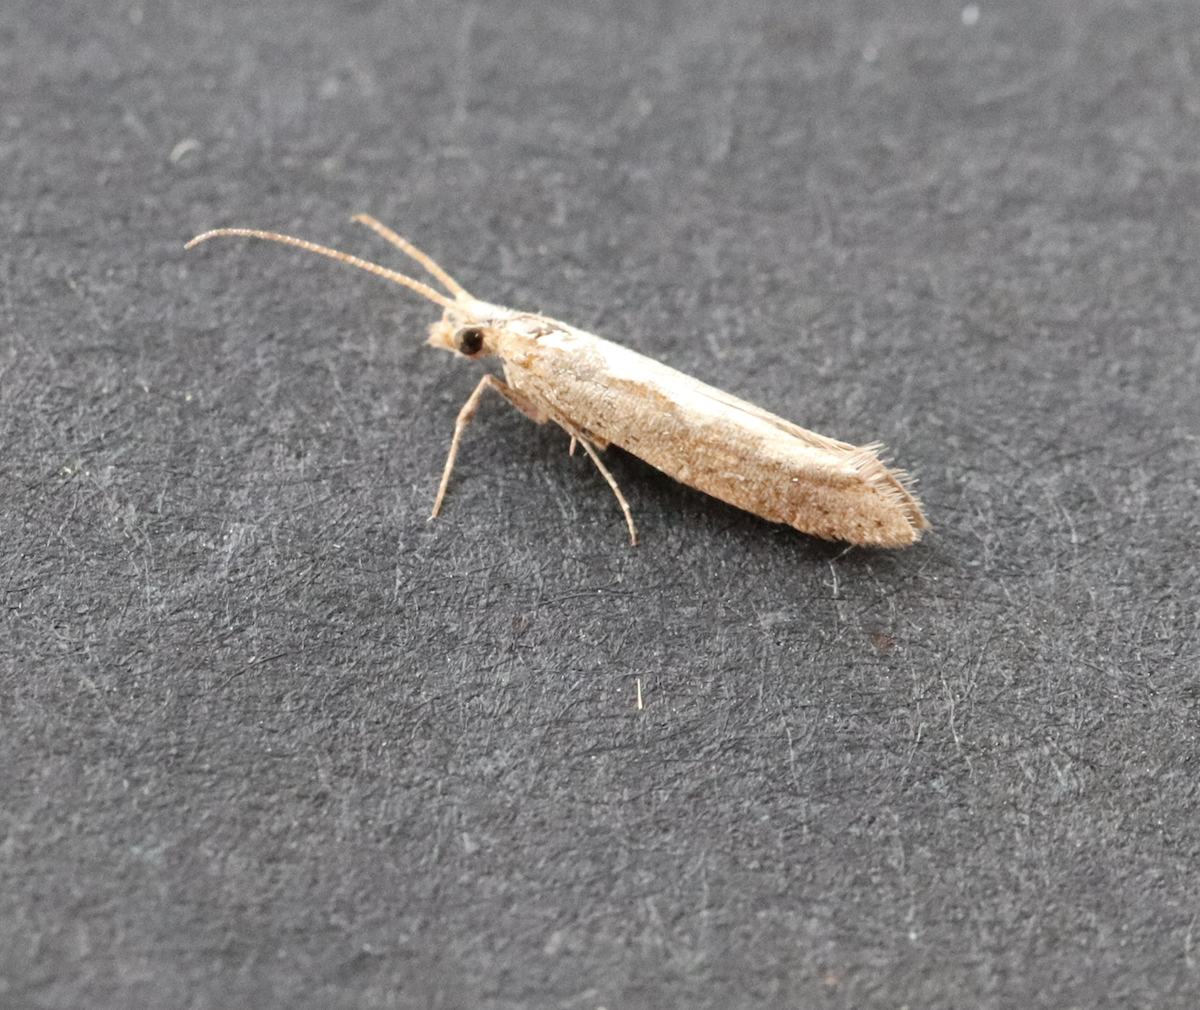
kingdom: Animalia
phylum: Arthropoda
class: Insecta
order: Lepidoptera
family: Plutellidae
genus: Plutella
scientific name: Plutella xylostella
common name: Diamond-back moth
